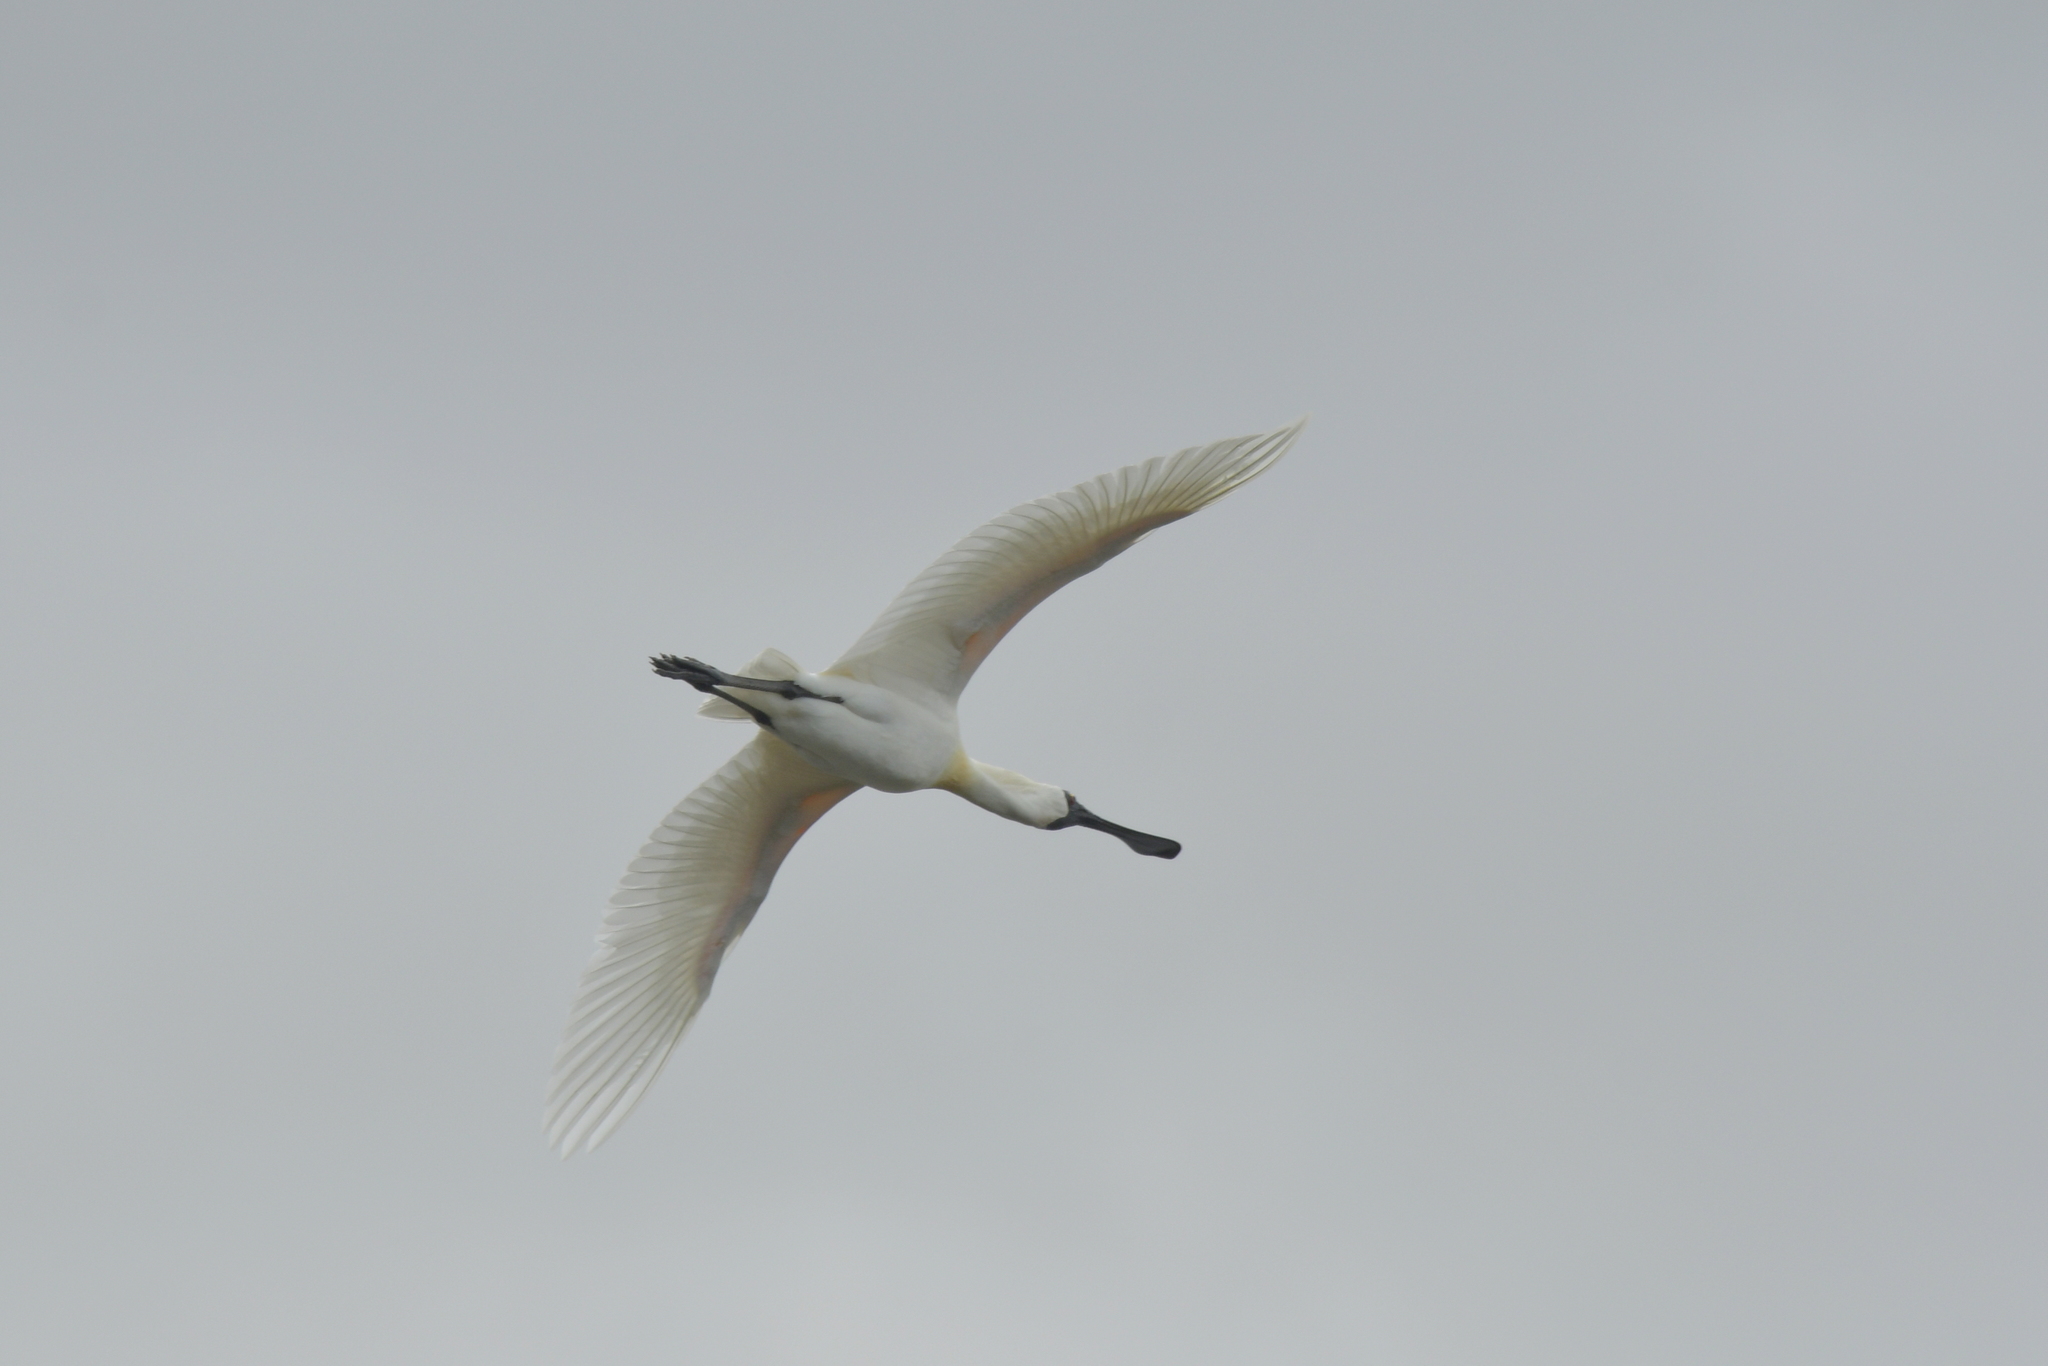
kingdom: Animalia
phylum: Chordata
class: Aves
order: Pelecaniformes
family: Threskiornithidae
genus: Platalea
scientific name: Platalea regia
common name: Royal spoonbill
